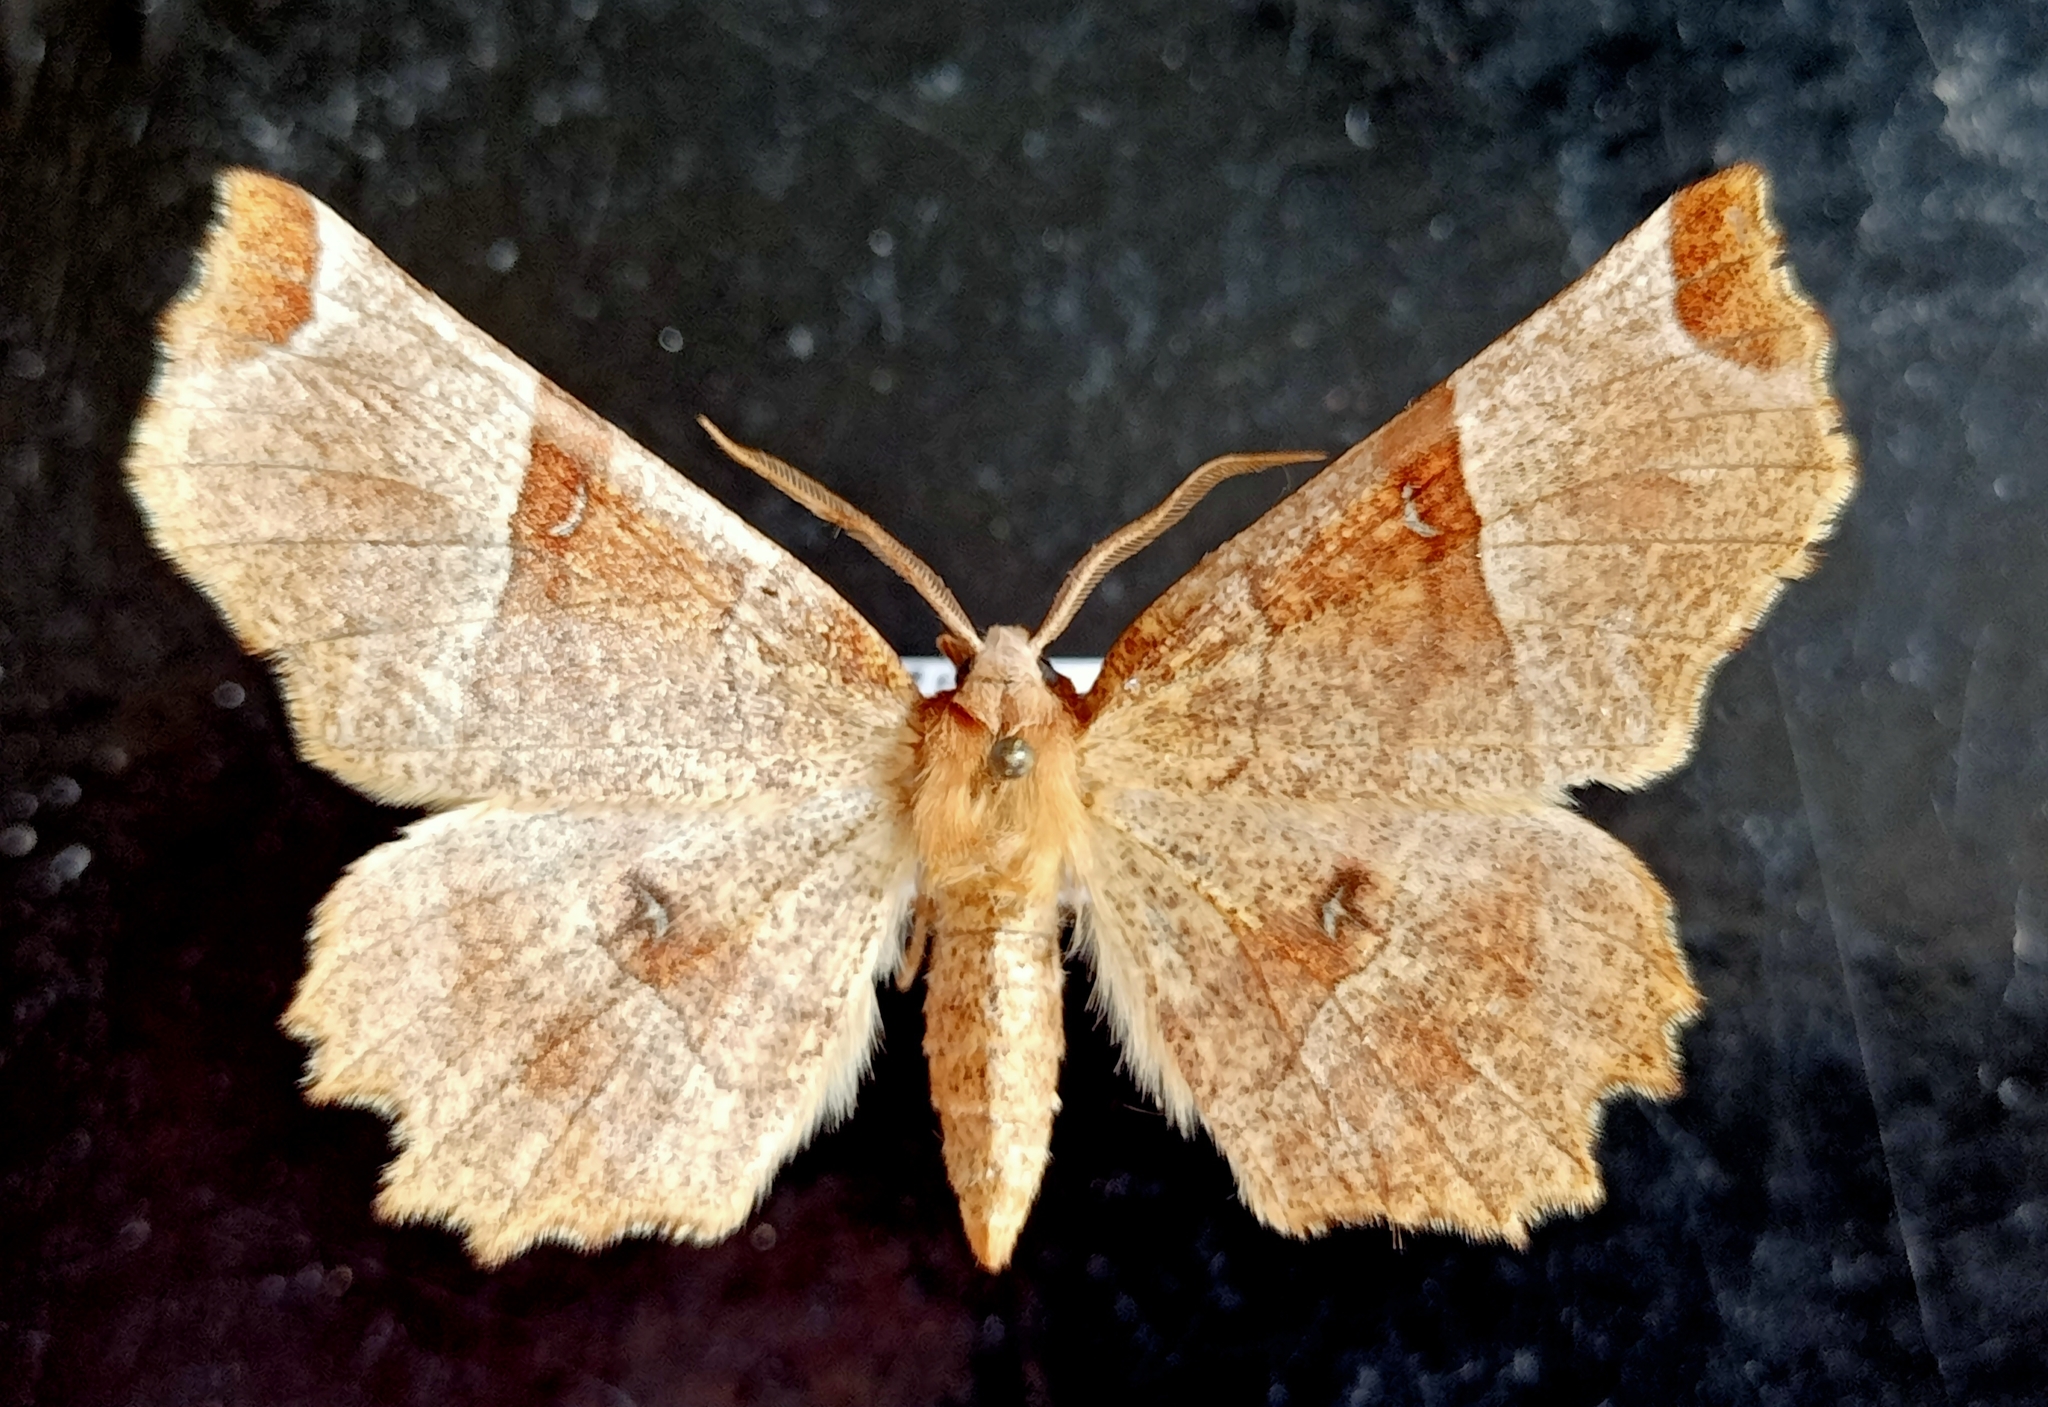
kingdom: Animalia
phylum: Arthropoda
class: Insecta
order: Lepidoptera
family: Geometridae
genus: Selenia
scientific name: Selenia lunularia
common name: Lunar thorn
